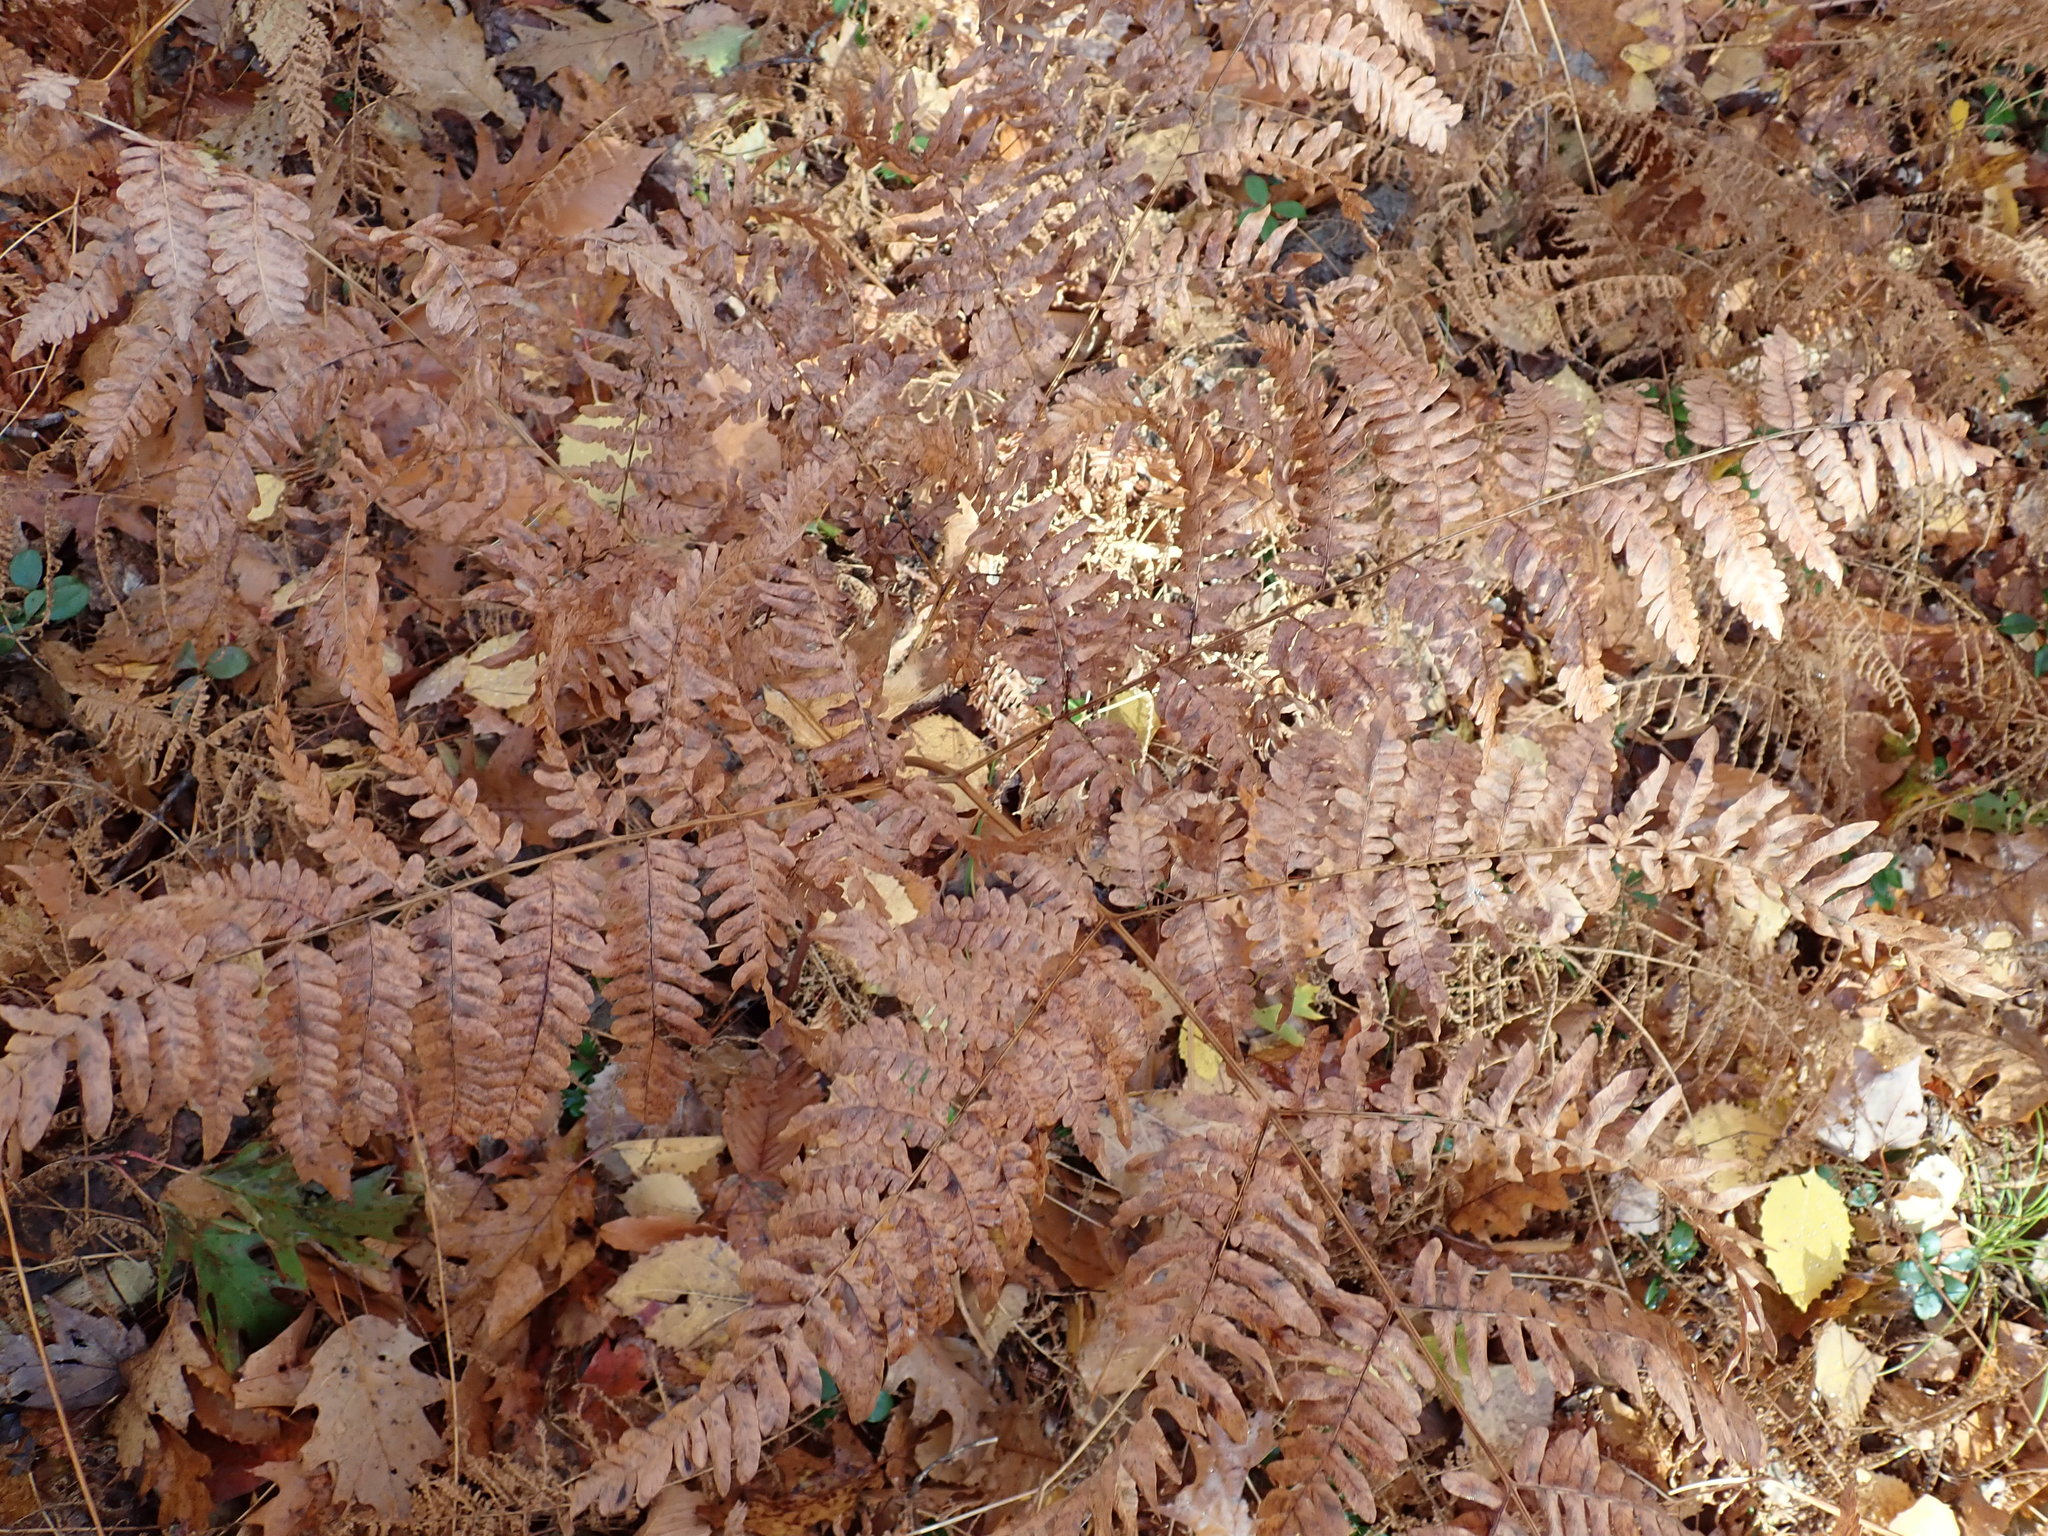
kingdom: Plantae
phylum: Tracheophyta
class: Polypodiopsida
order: Polypodiales
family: Dennstaedtiaceae
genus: Pteridium
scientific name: Pteridium aquilinum
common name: Bracken
